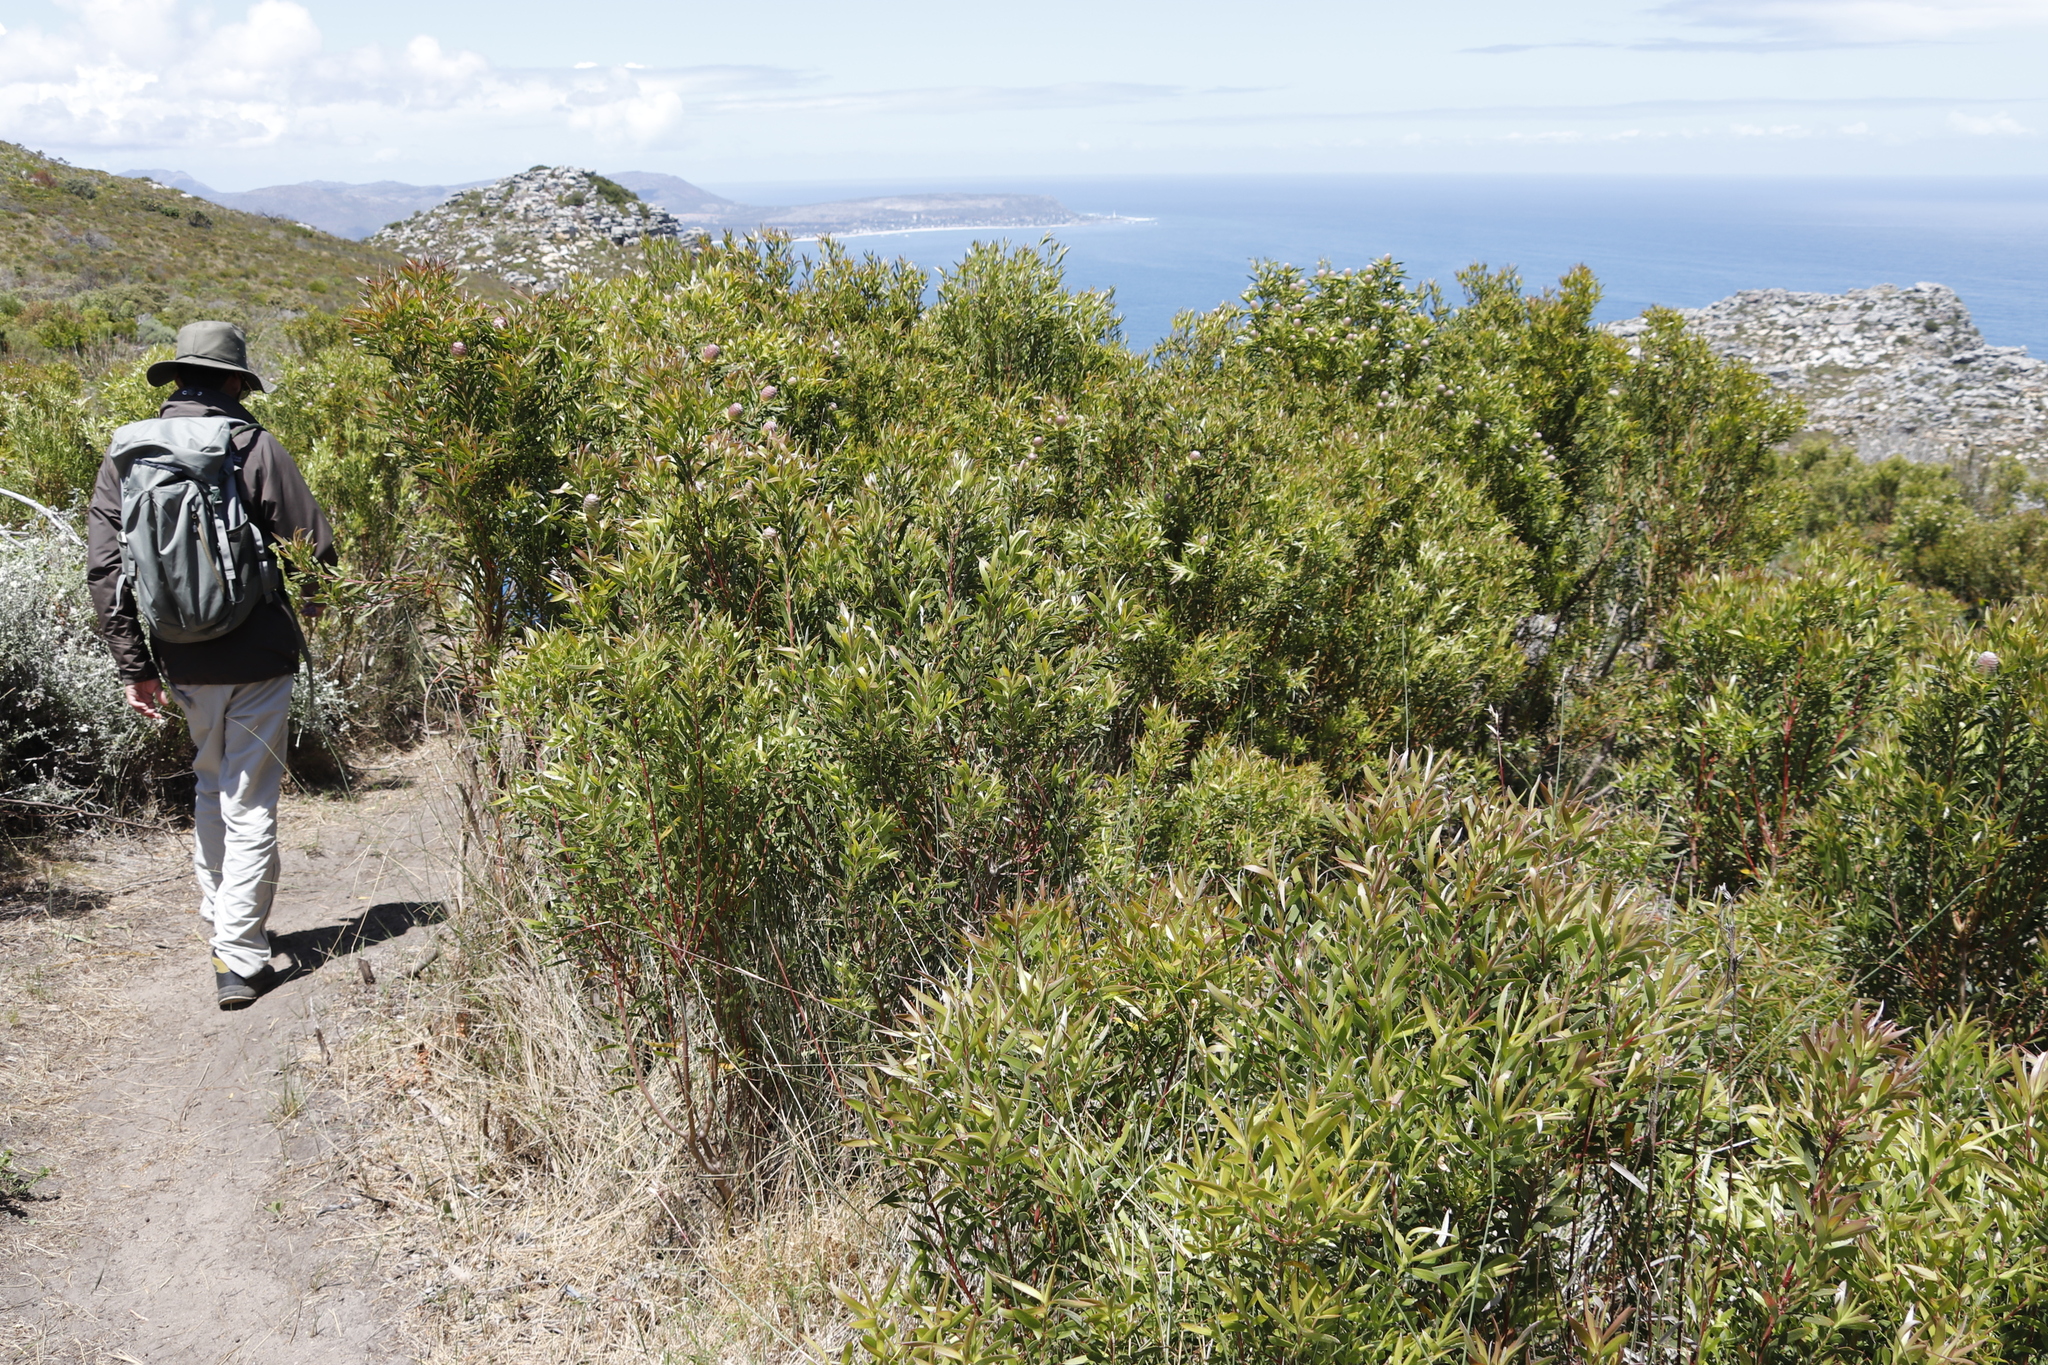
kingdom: Plantae
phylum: Tracheophyta
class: Magnoliopsida
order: Proteales
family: Proteaceae
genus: Protea
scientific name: Protea lepidocarpodendron
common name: Black-bearded protea
